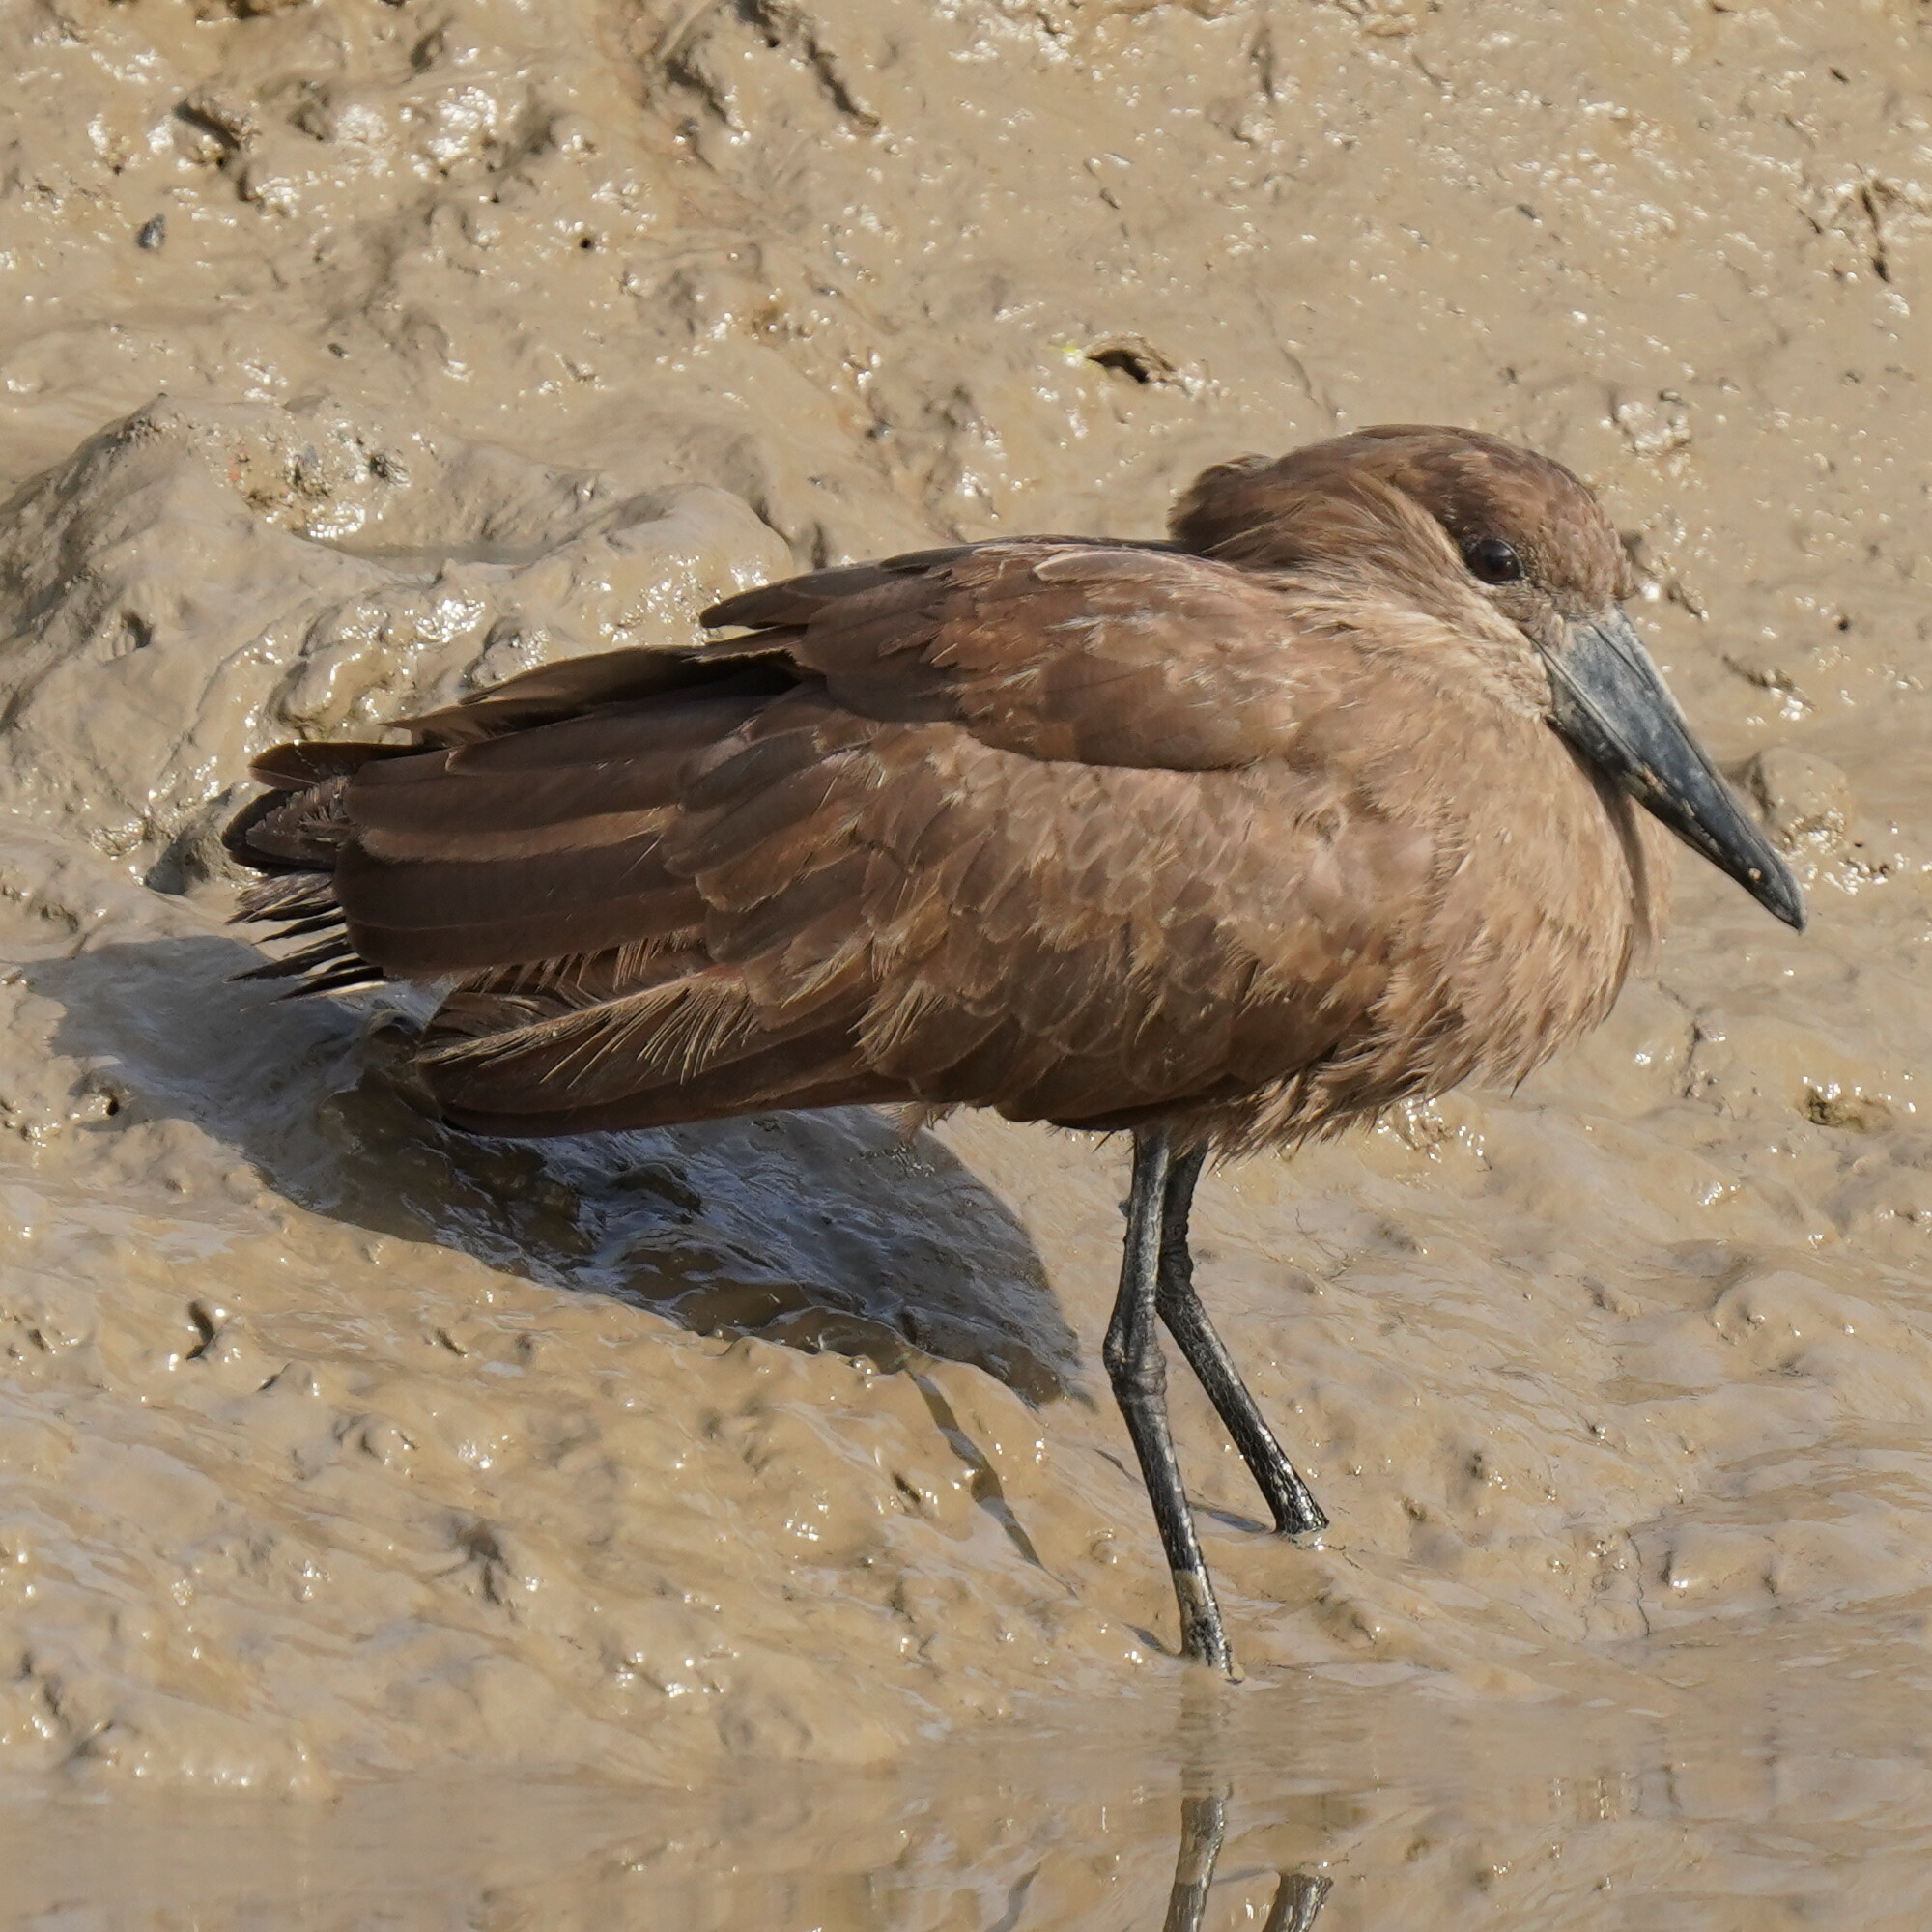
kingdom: Animalia
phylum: Chordata
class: Aves
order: Pelecaniformes
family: Scopidae
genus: Scopus
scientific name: Scopus umbretta
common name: Hamerkop
